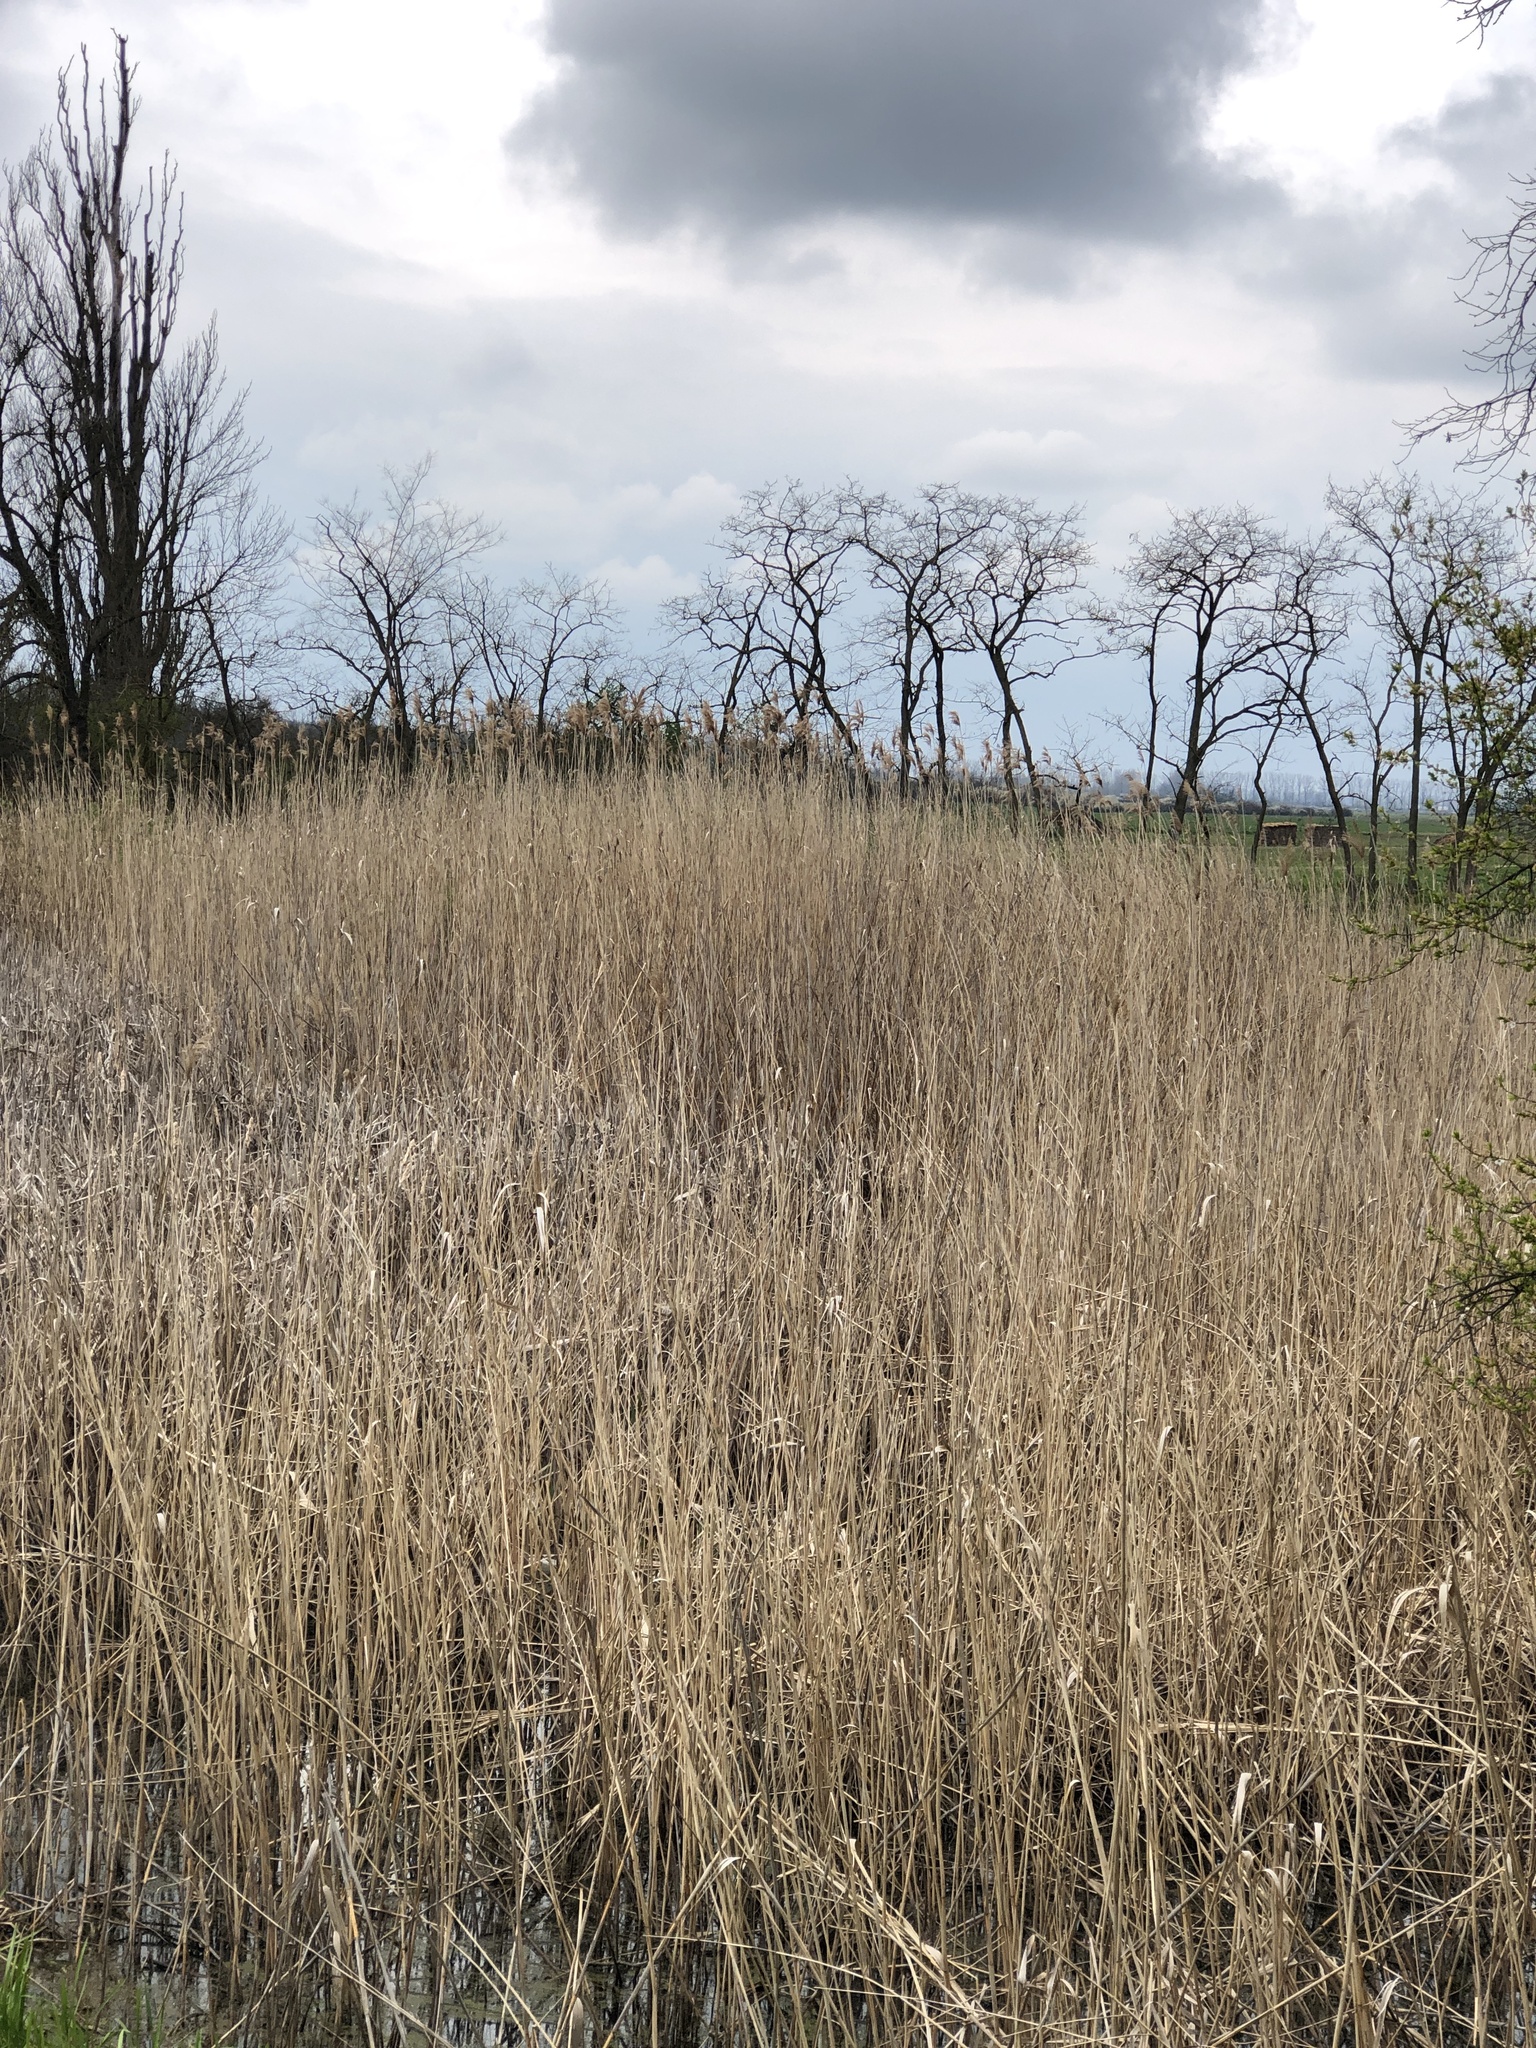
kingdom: Plantae
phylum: Tracheophyta
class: Liliopsida
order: Poales
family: Poaceae
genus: Phragmites
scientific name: Phragmites australis
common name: Common reed
